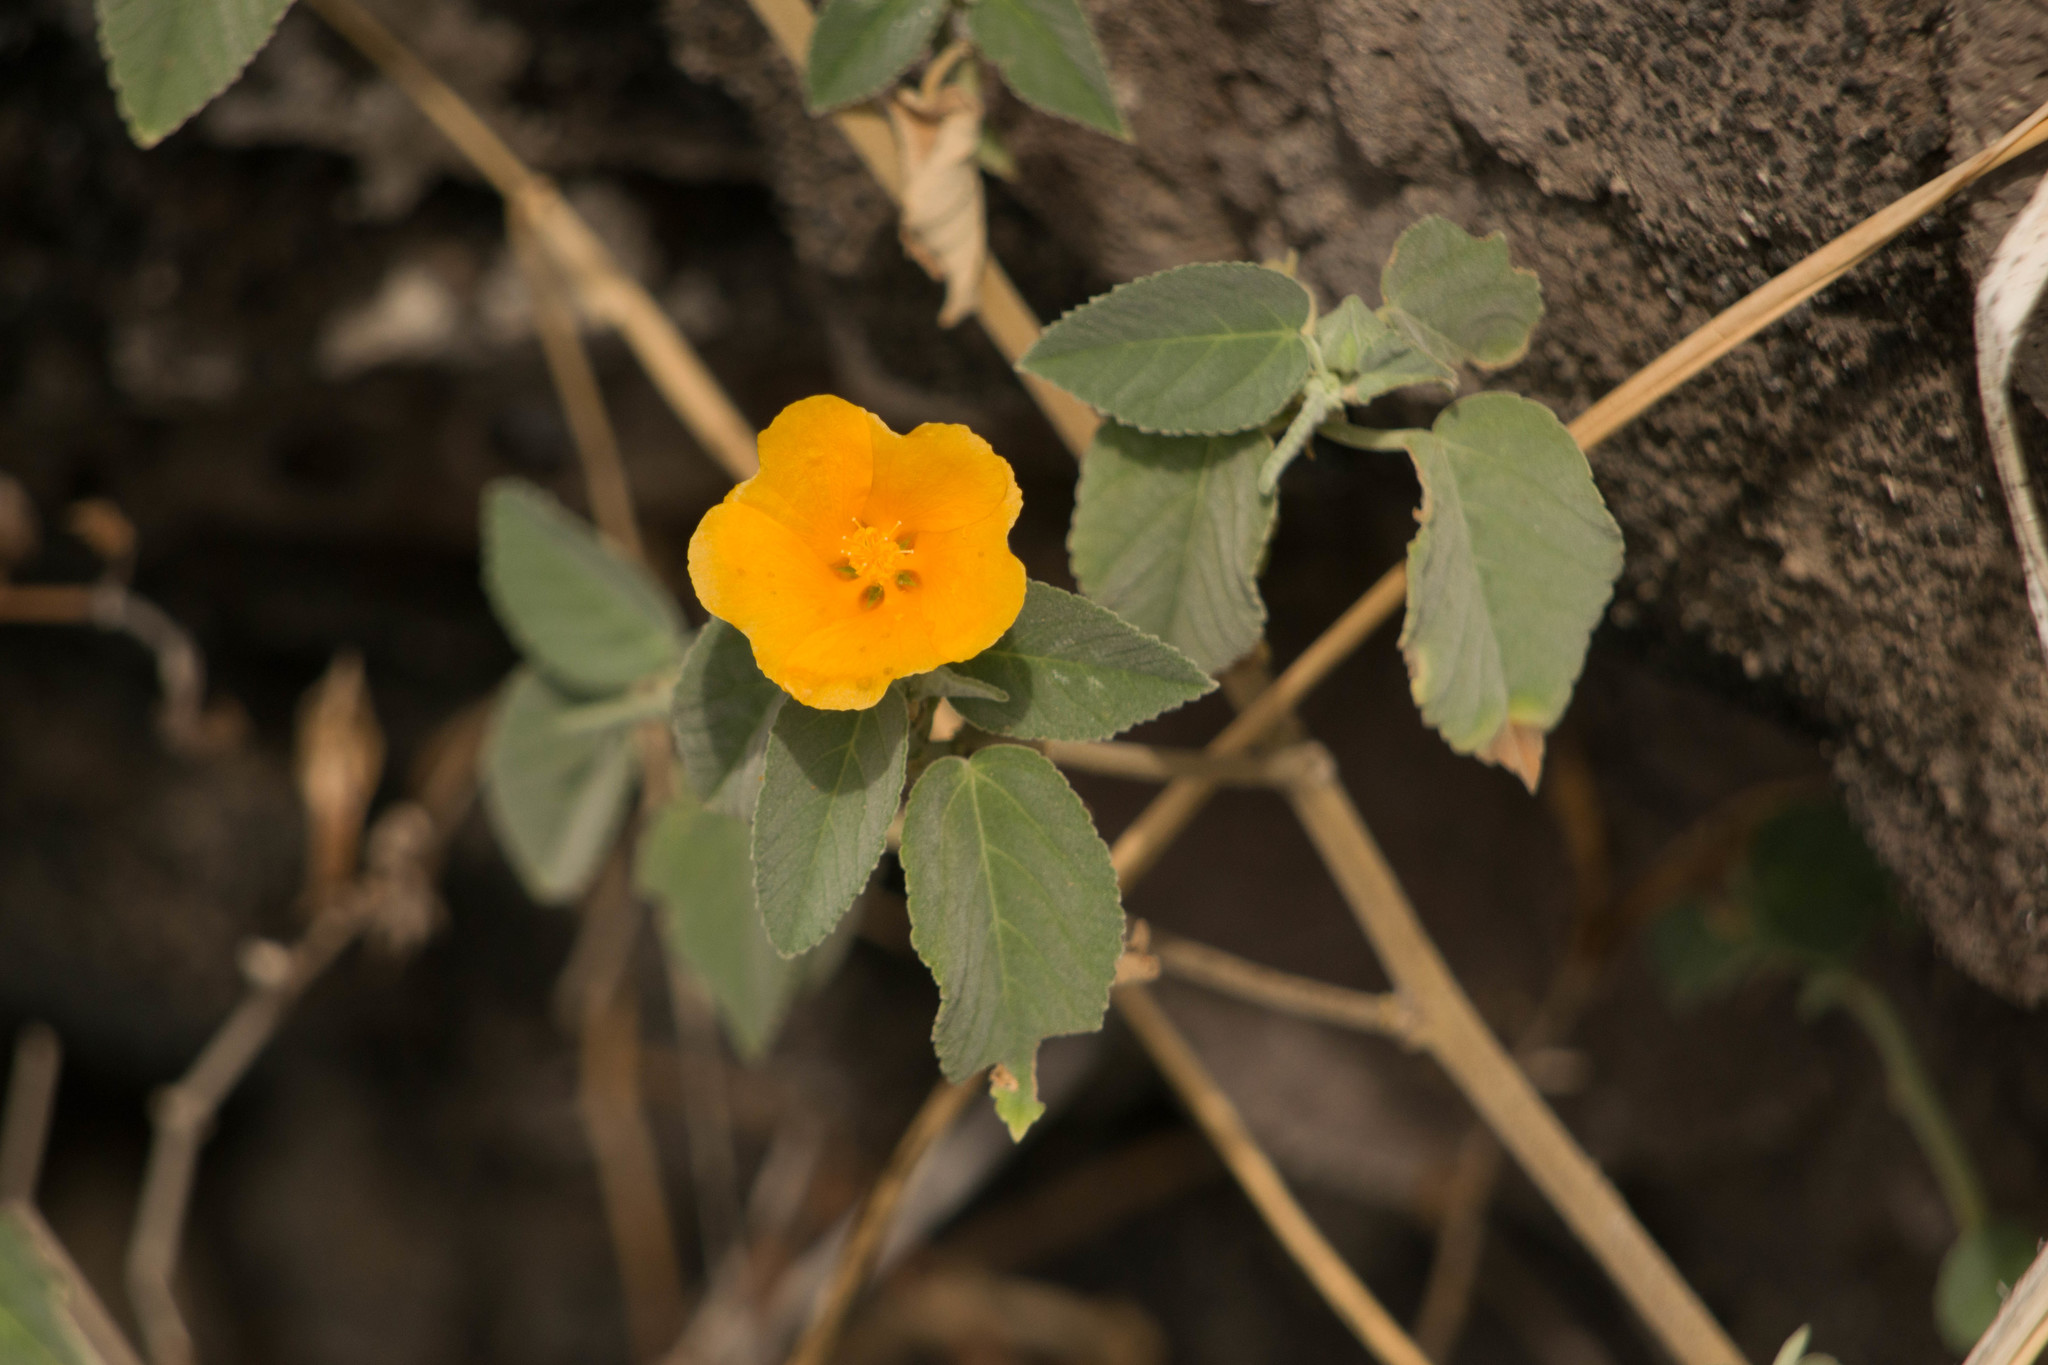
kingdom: Plantae
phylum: Tracheophyta
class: Magnoliopsida
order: Malvales
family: Malvaceae
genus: Sida
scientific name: Sida fallax
